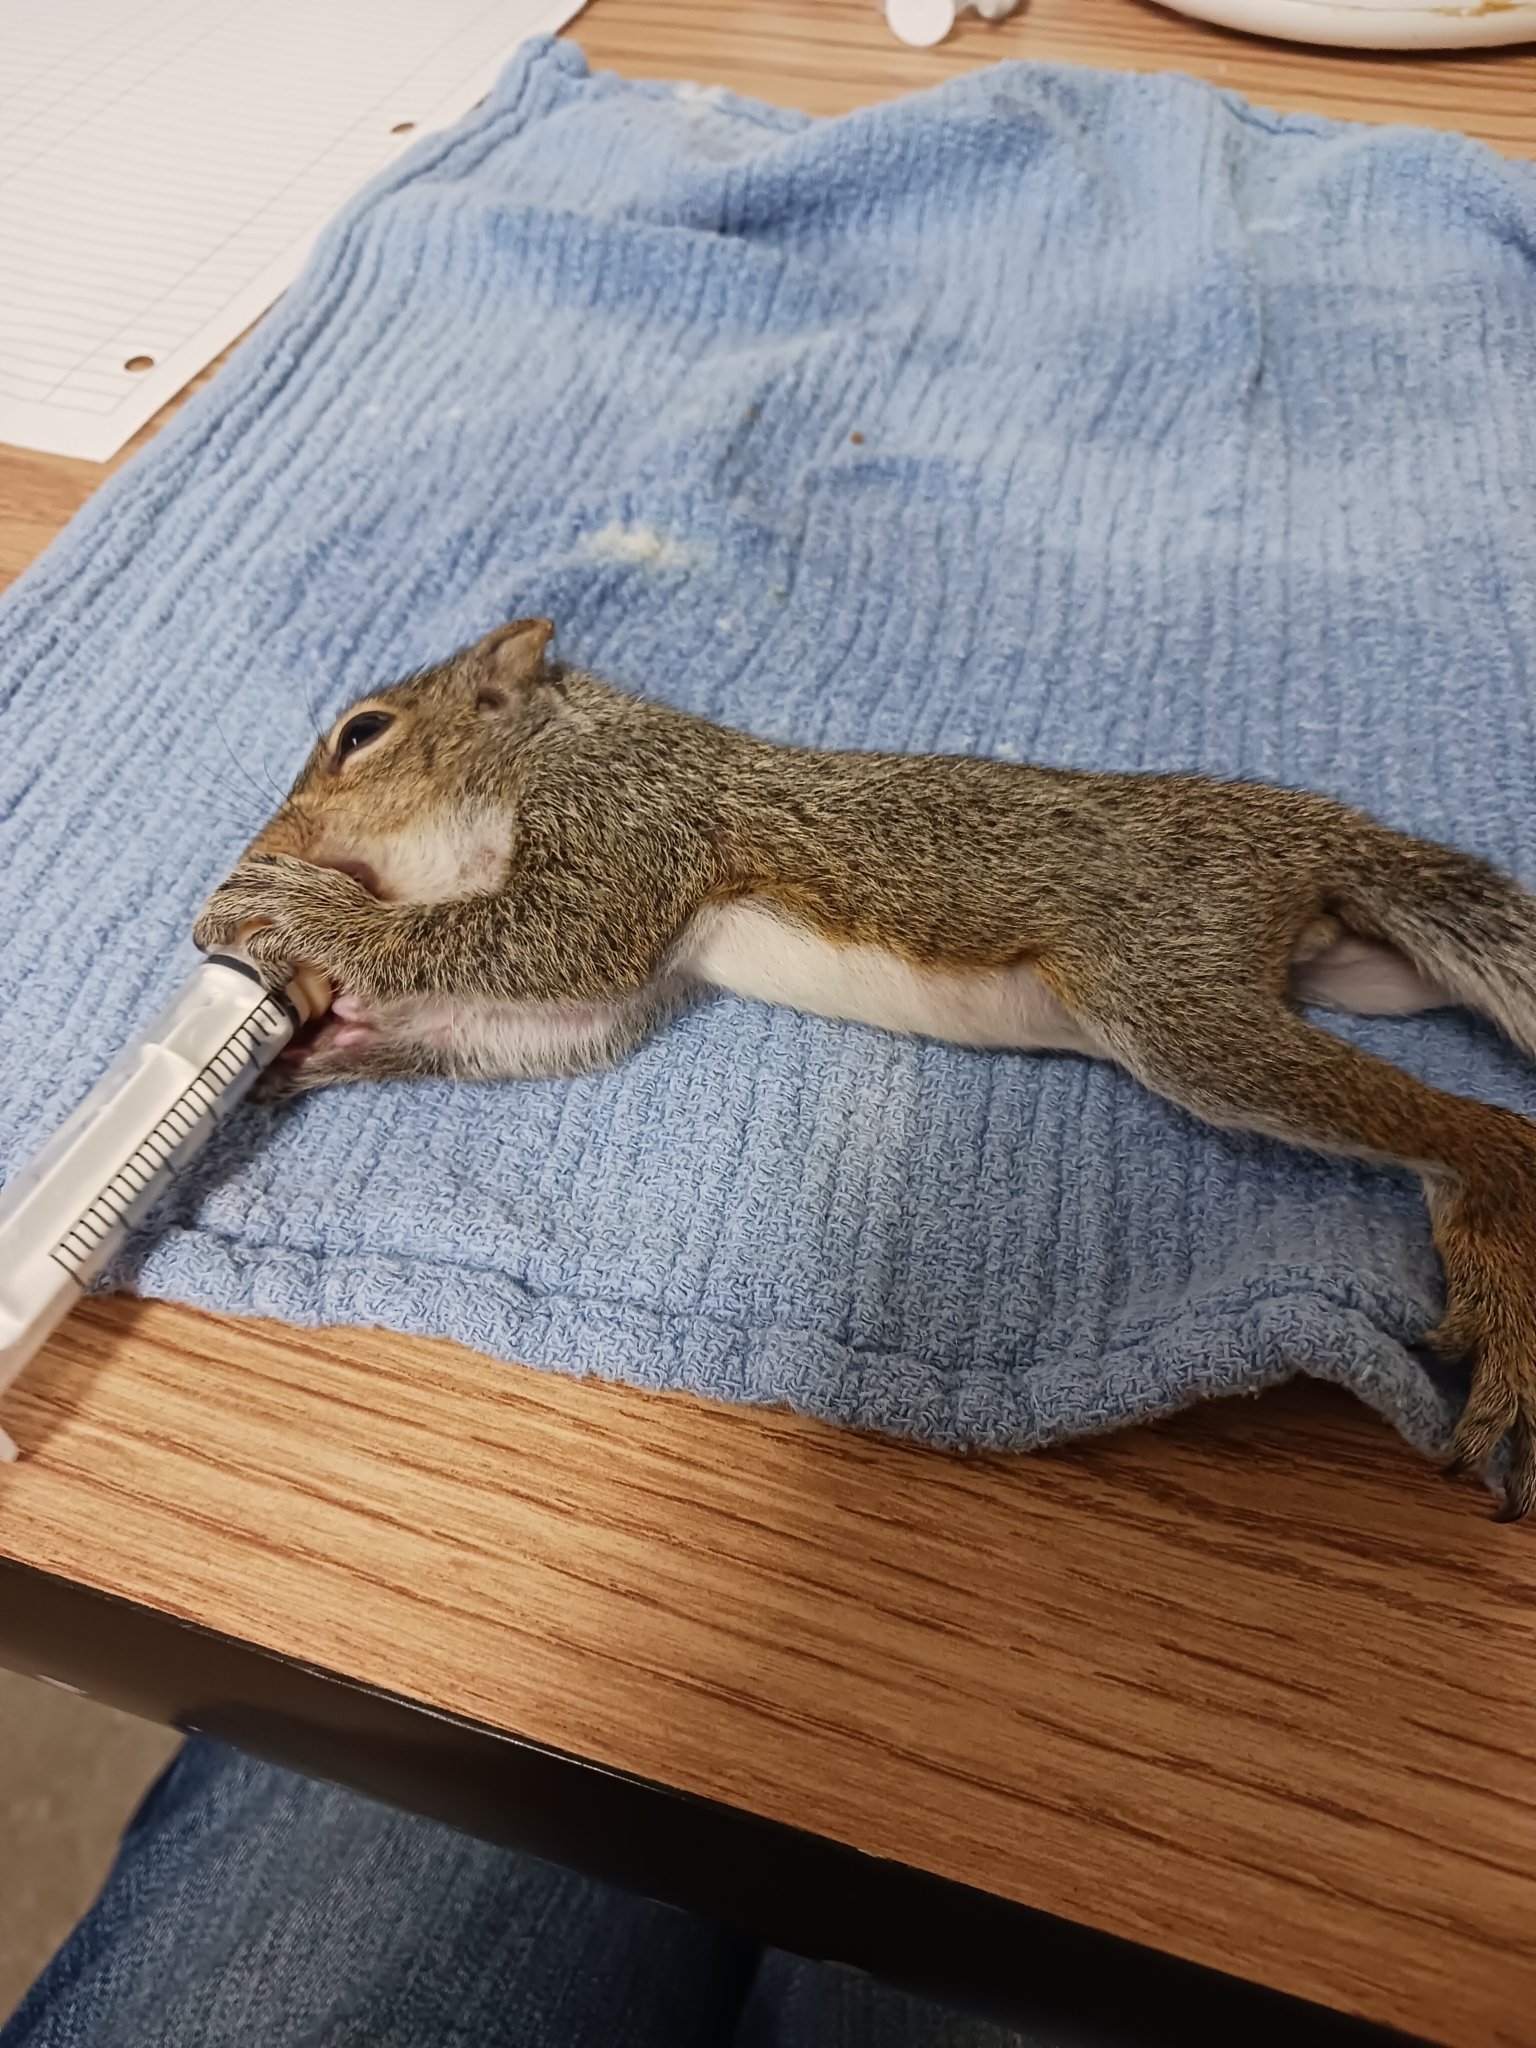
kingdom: Animalia
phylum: Chordata
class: Mammalia
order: Rodentia
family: Sciuridae
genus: Sciurus
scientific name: Sciurus carolinensis
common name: Eastern gray squirrel
